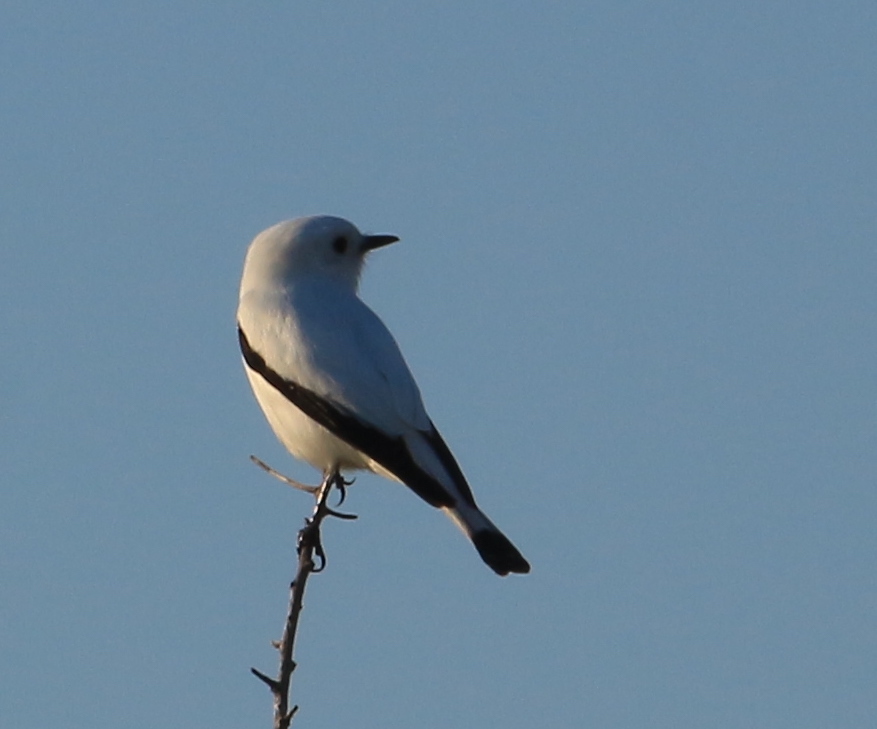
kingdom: Animalia
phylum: Chordata
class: Aves
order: Passeriformes
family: Tyrannidae
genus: Xolmis
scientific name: Xolmis irupero
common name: White monjita
